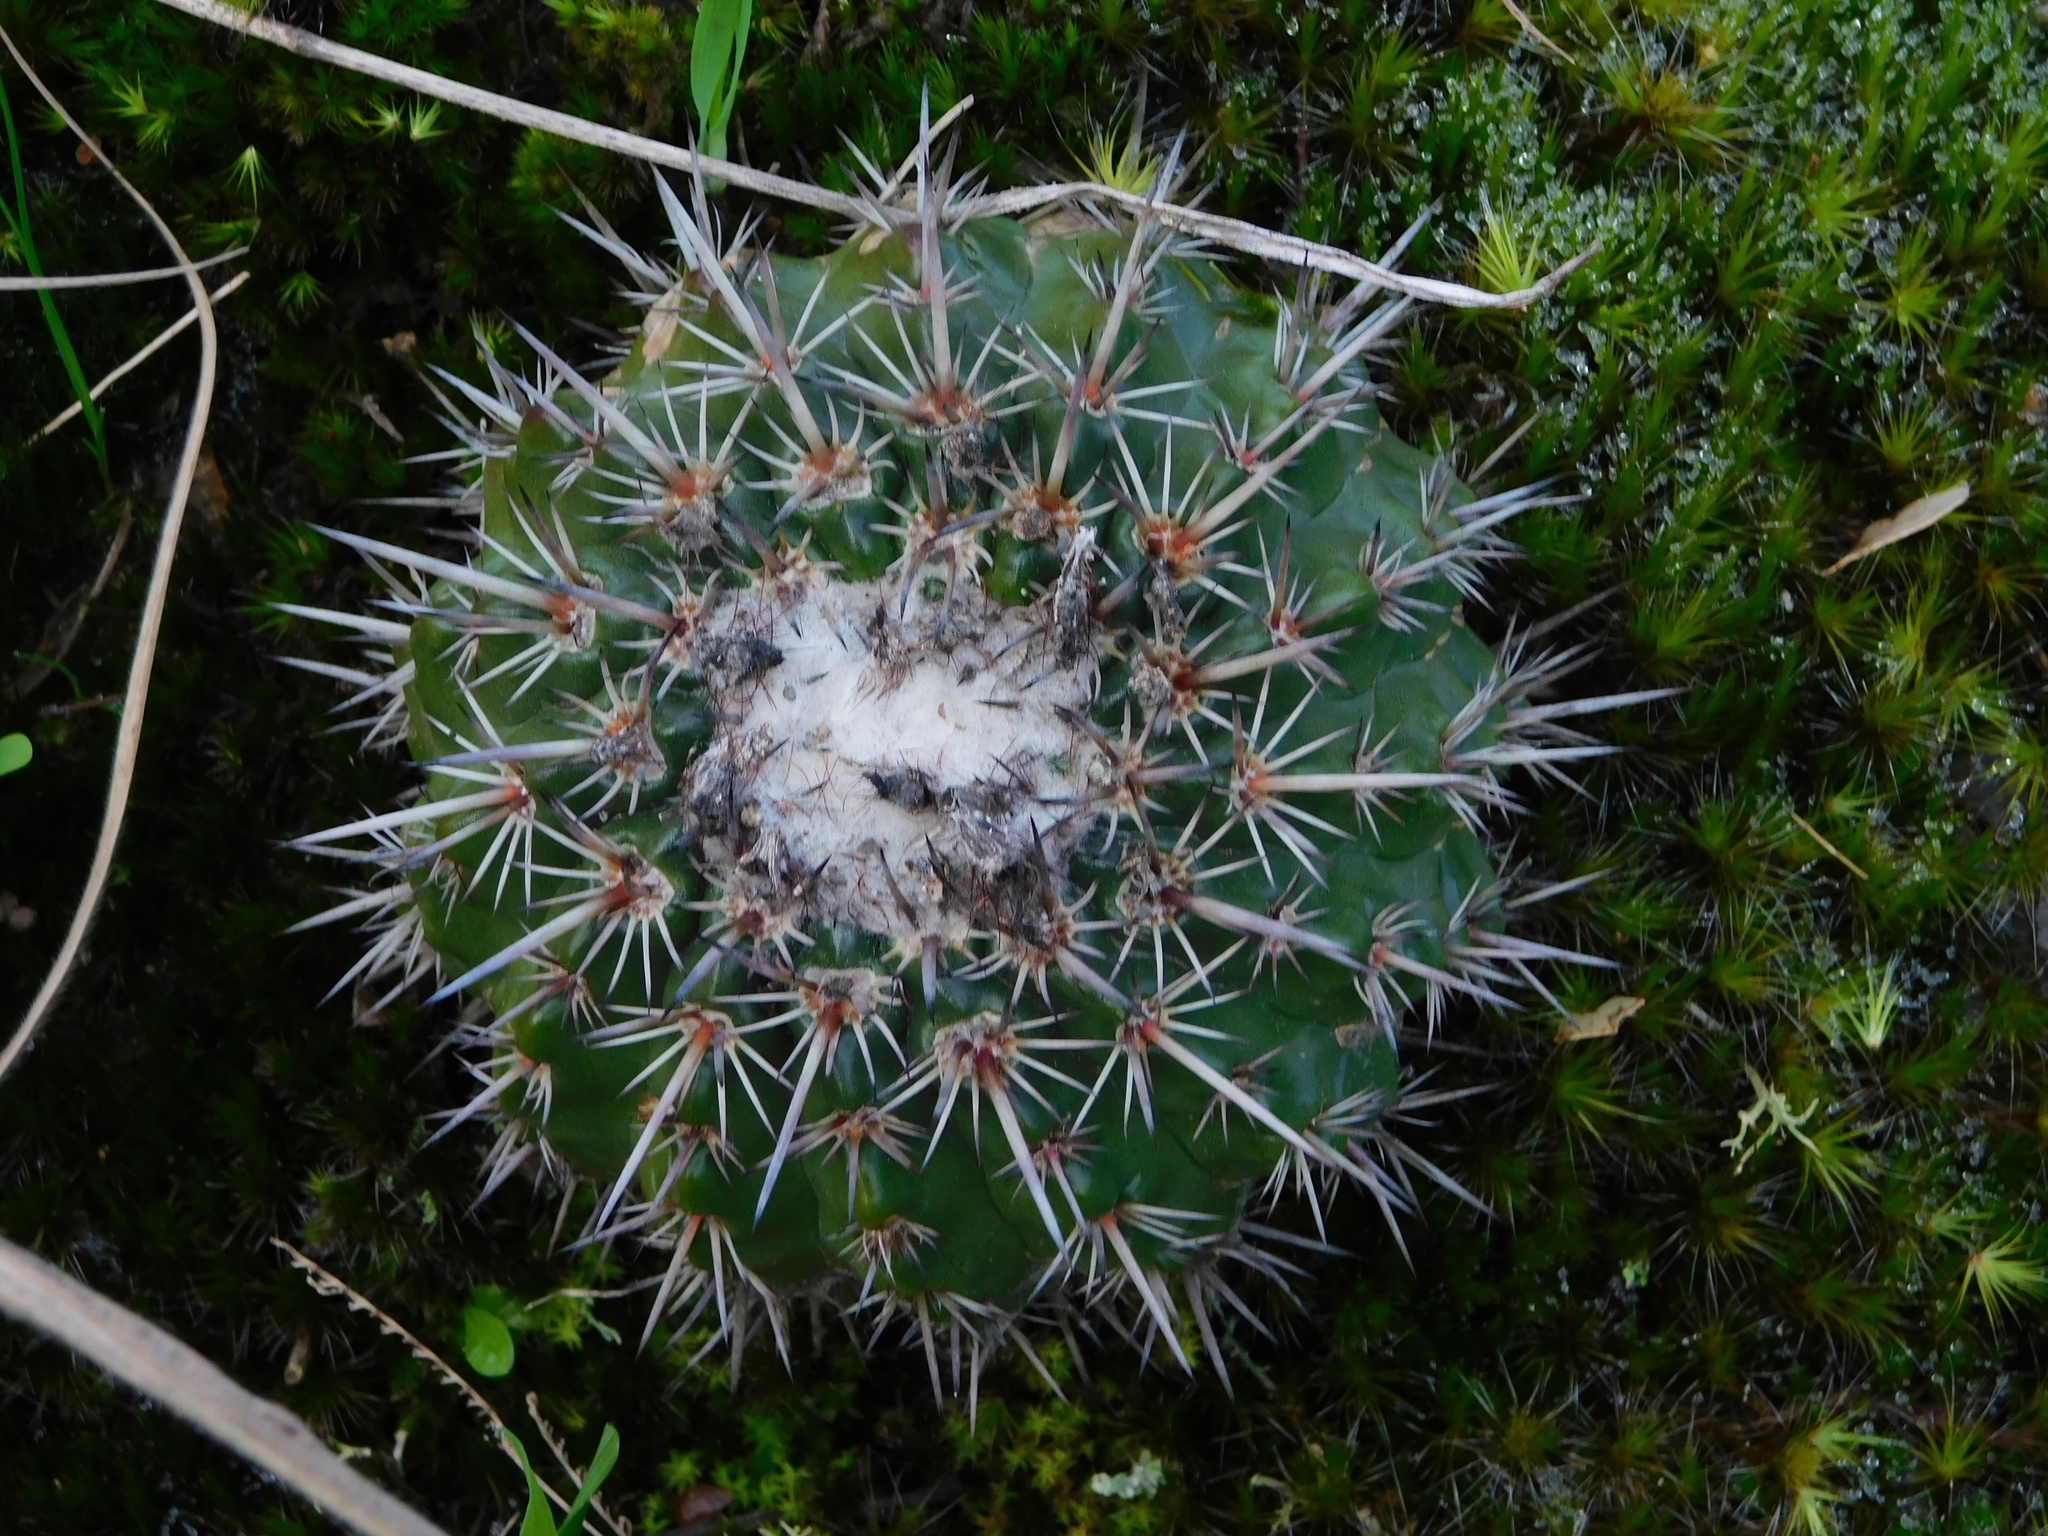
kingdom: Plantae
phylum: Tracheophyta
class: Magnoliopsida
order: Caryophyllales
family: Cactaceae
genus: Parodia
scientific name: Parodia mammulosa
